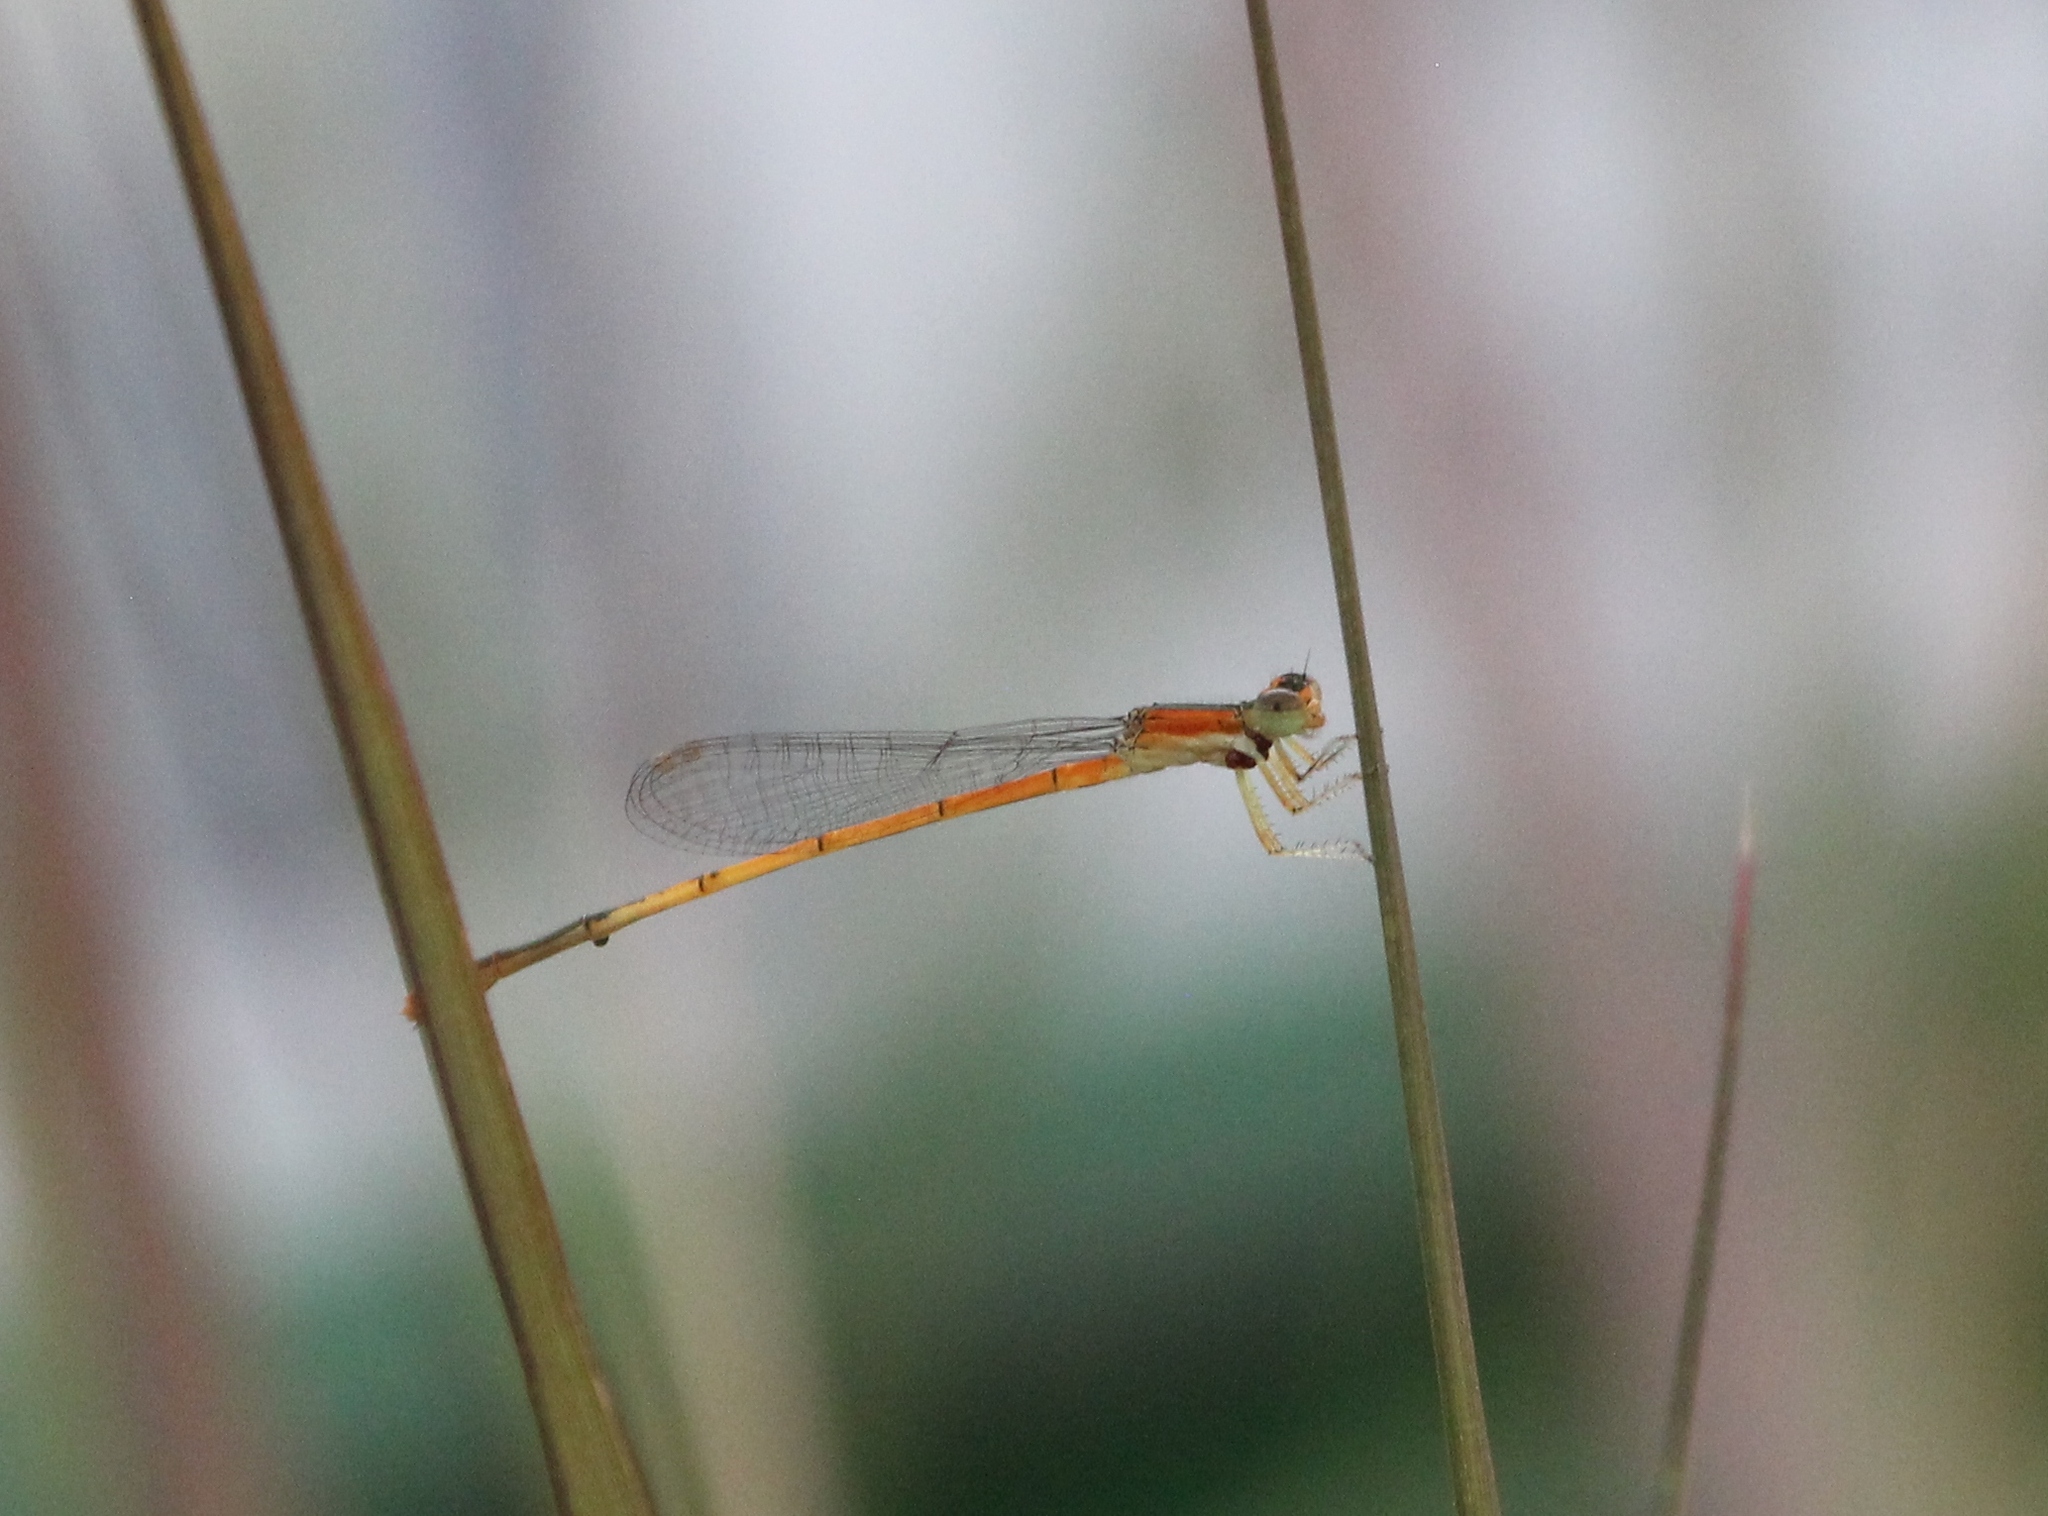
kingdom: Animalia
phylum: Arthropoda
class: Insecta
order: Odonata
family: Coenagrionidae
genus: Ischnura
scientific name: Ischnura hastata
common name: Citrine forktail
